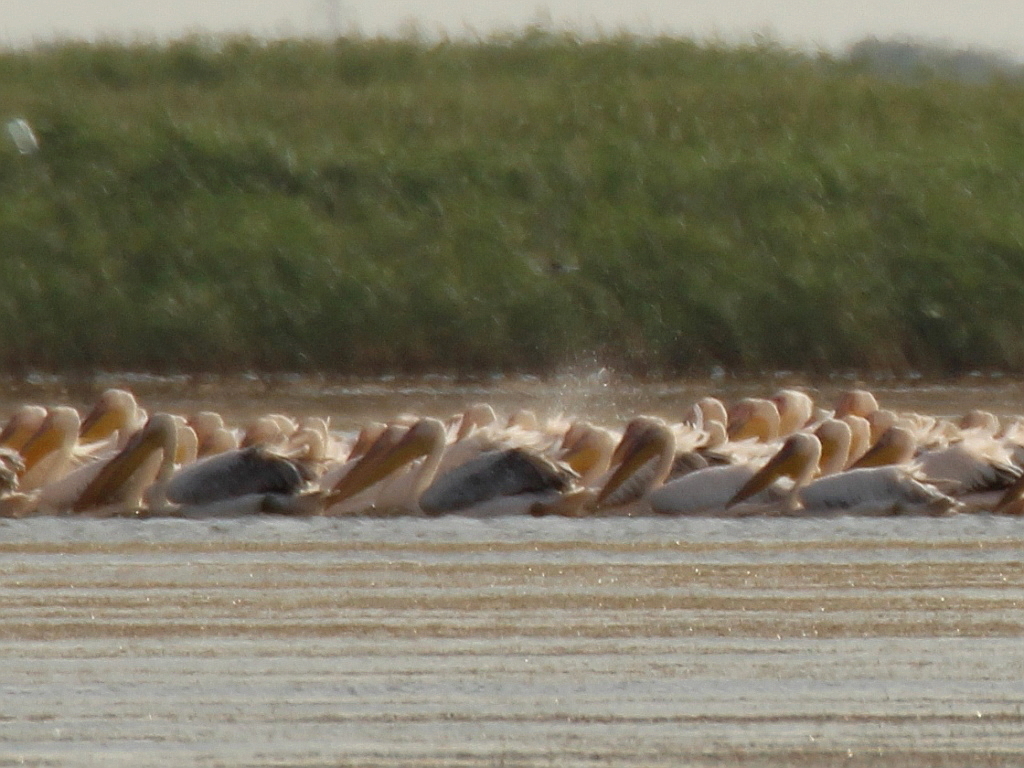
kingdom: Animalia
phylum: Chordata
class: Aves
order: Pelecaniformes
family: Pelecanidae
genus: Pelecanus
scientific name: Pelecanus onocrotalus
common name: Great white pelican
